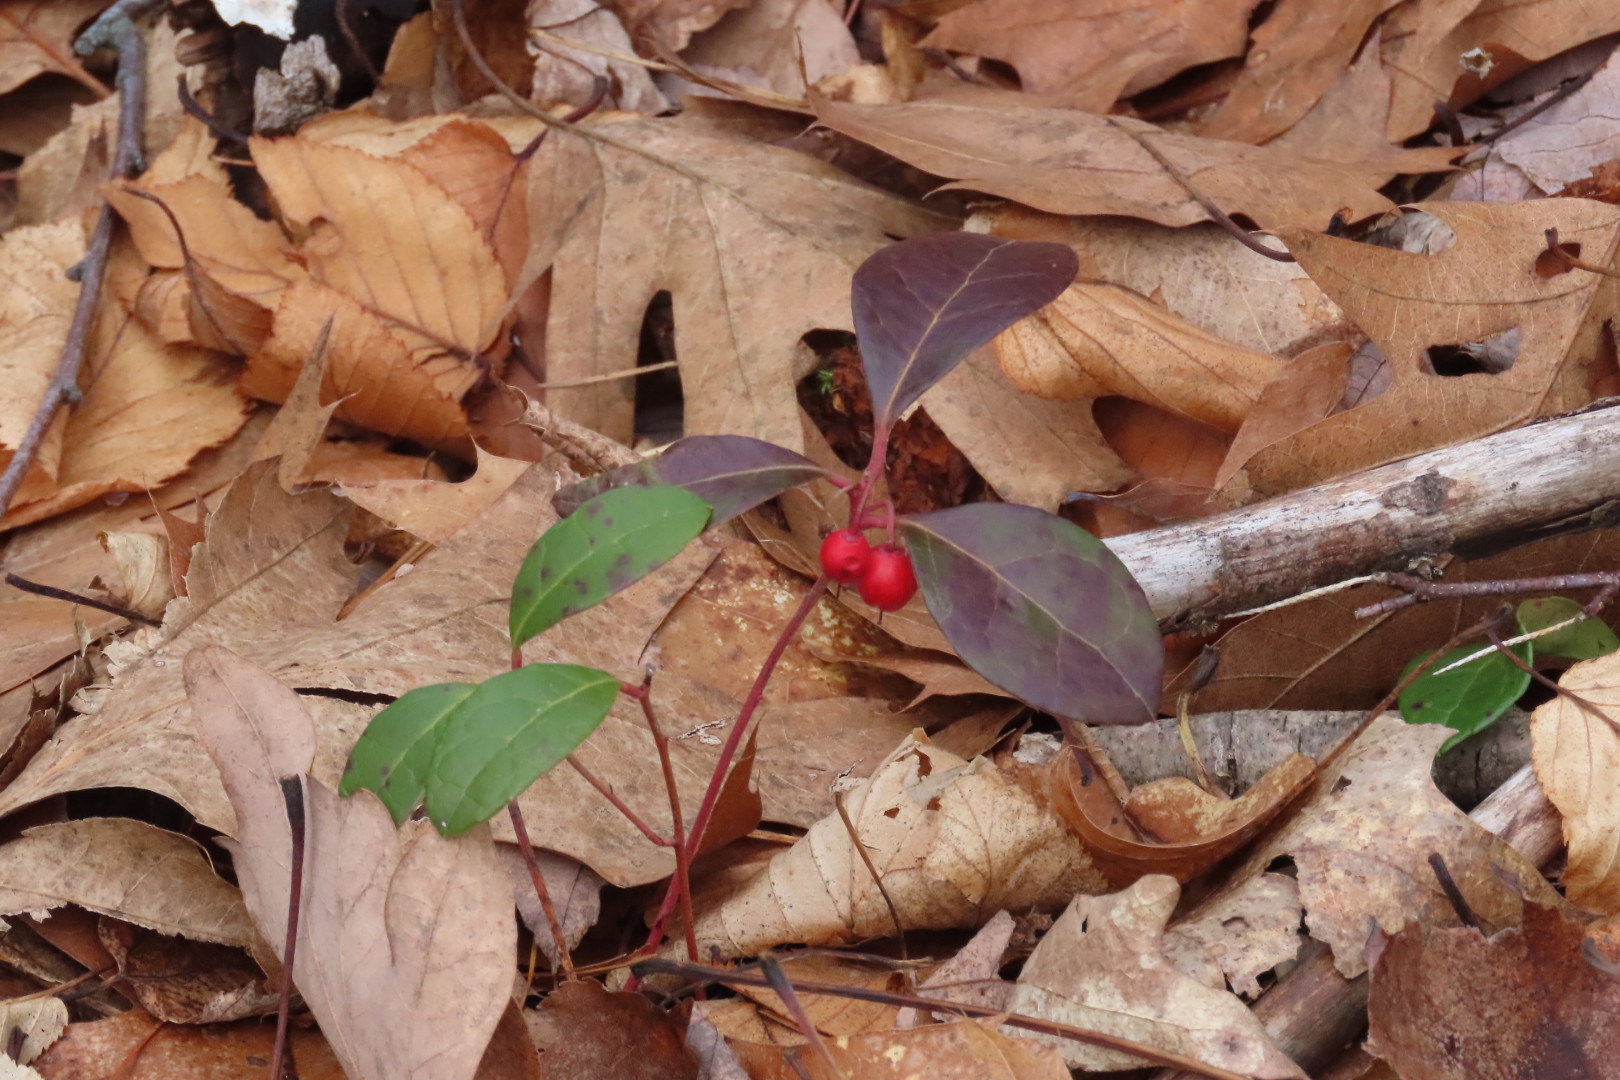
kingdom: Plantae
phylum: Tracheophyta
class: Magnoliopsida
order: Ericales
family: Ericaceae
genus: Gaultheria
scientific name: Gaultheria procumbens
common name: Checkerberry
